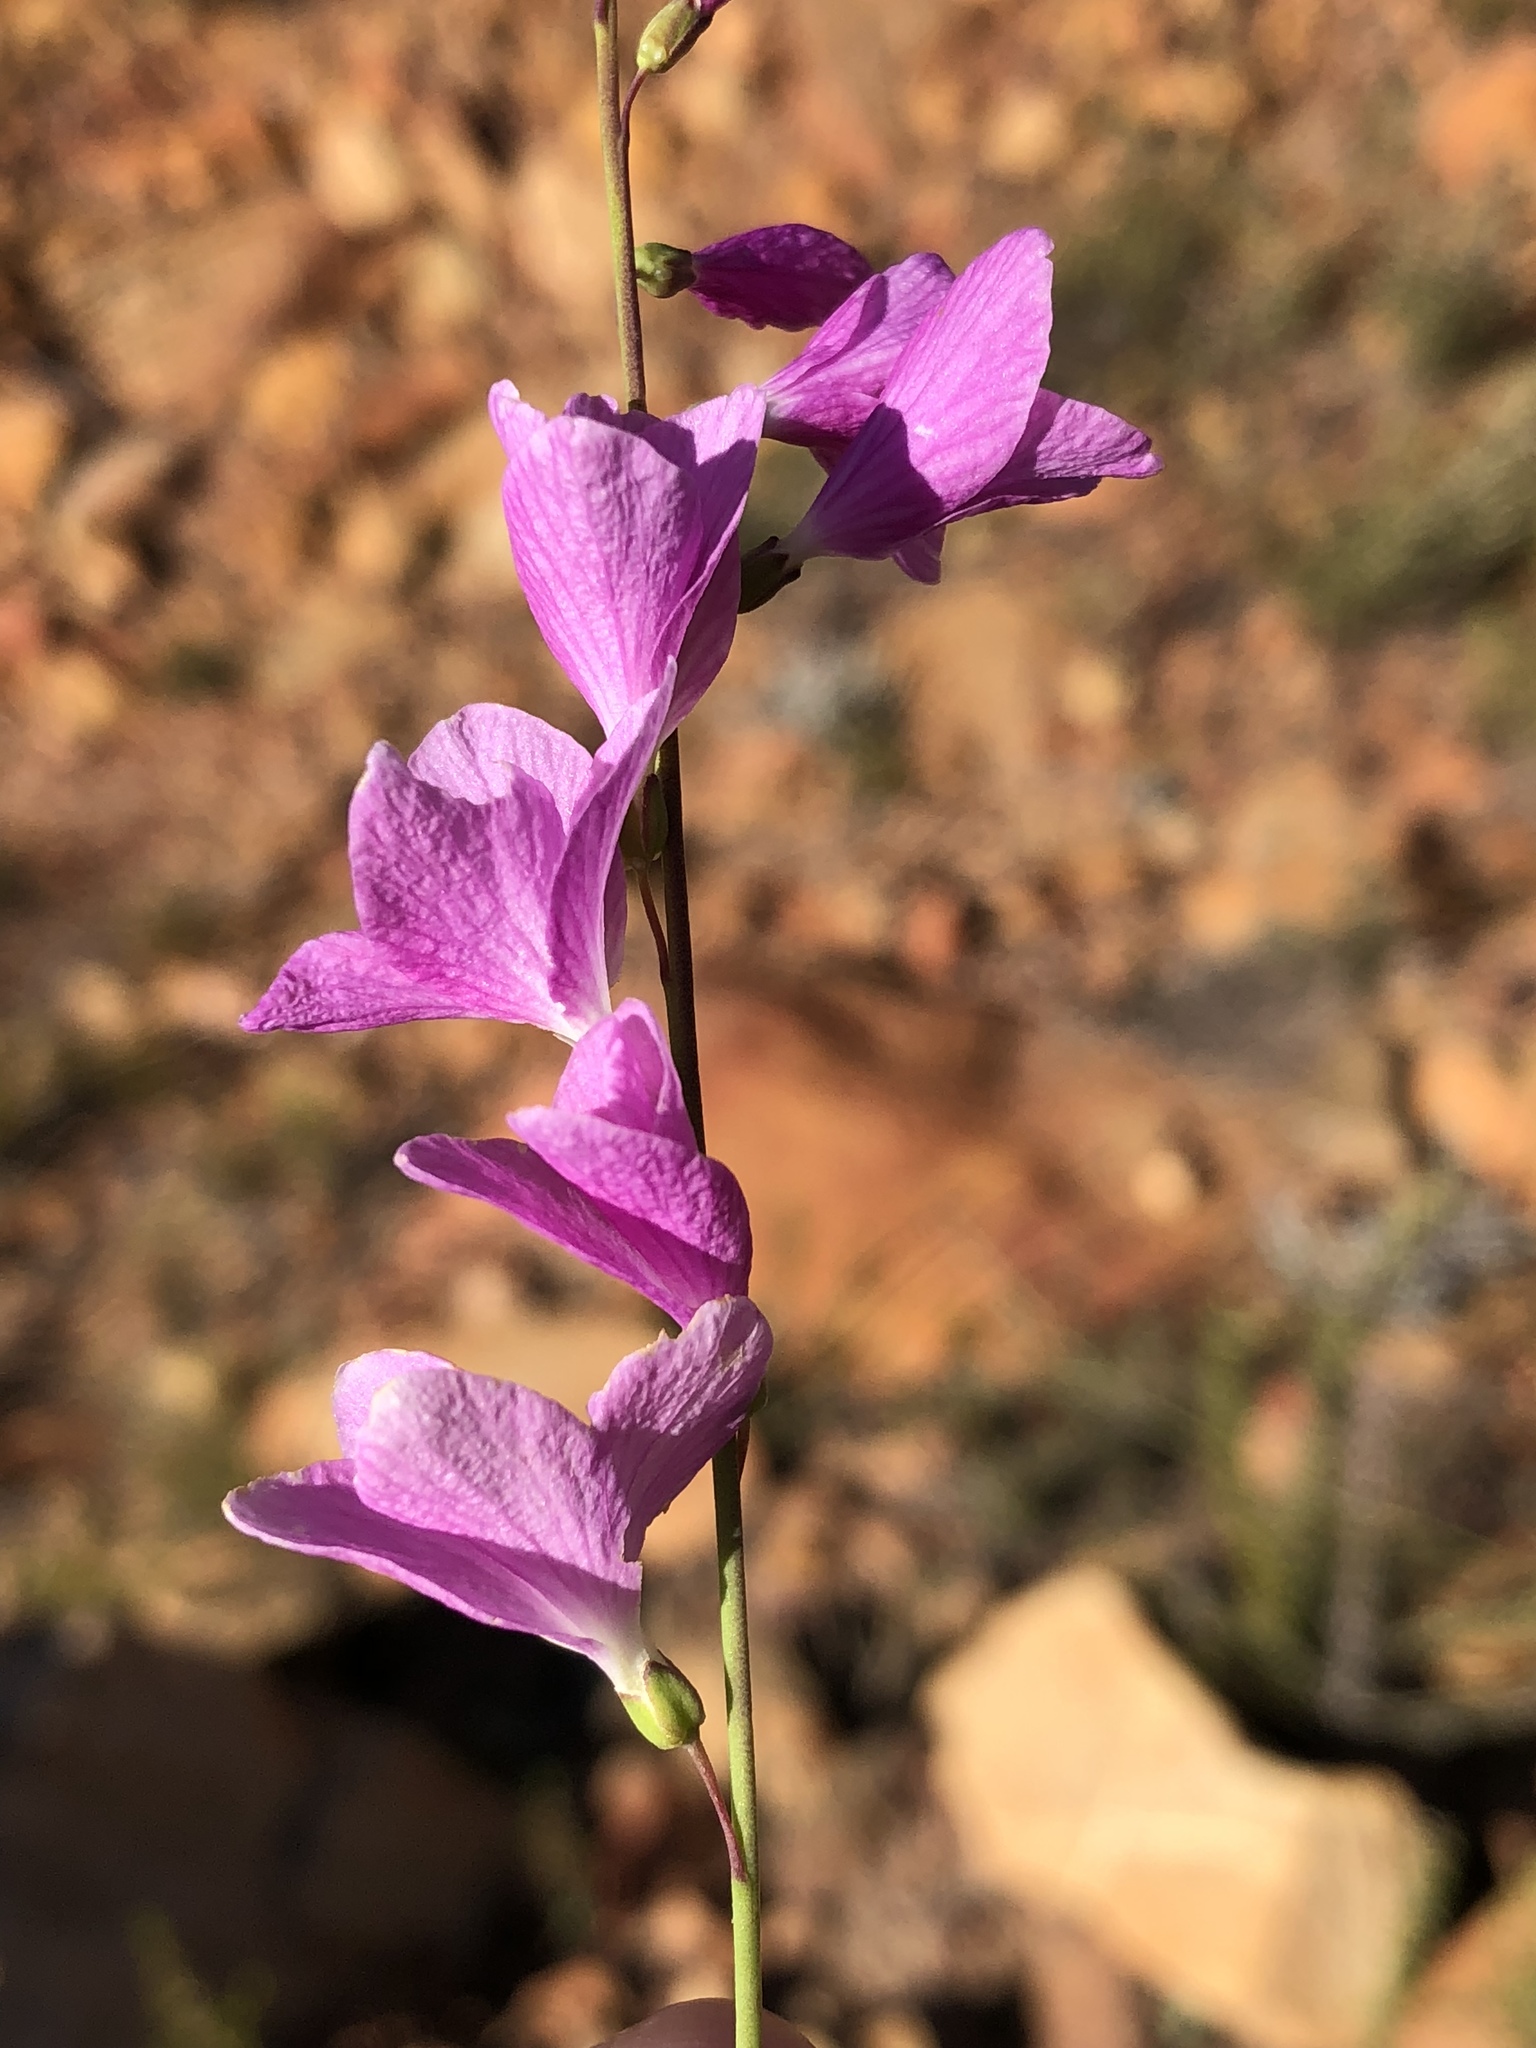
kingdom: Plantae
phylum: Tracheophyta
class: Magnoliopsida
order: Brassicales
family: Brassicaceae
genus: Heliophila
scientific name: Heliophila juncea
